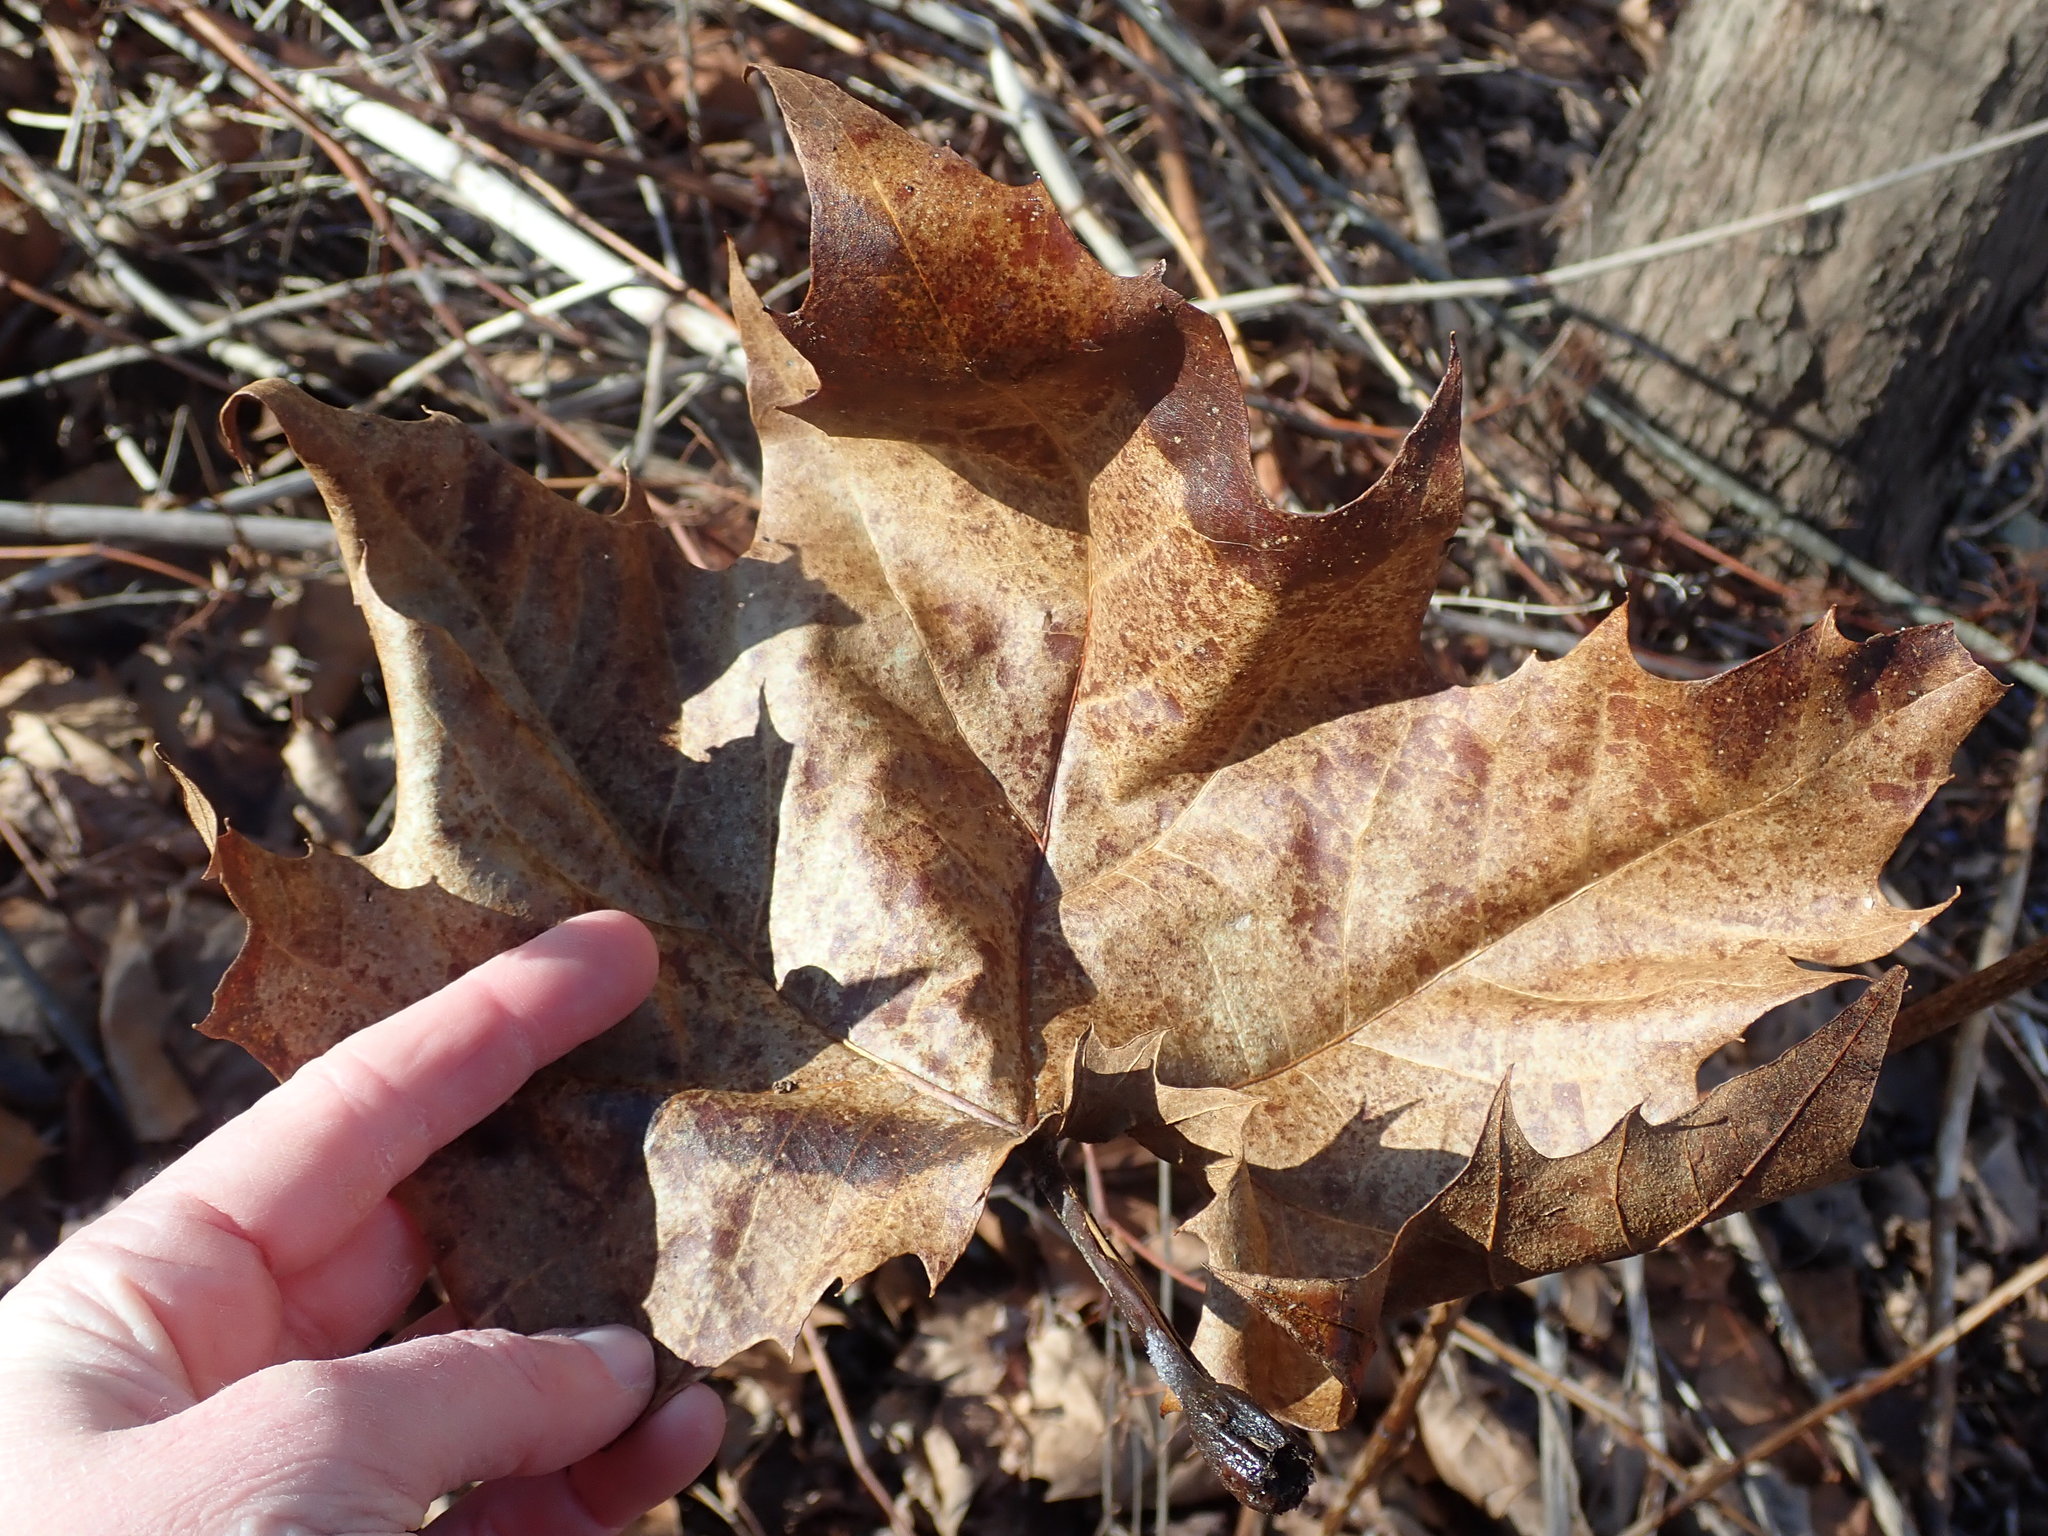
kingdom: Plantae
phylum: Tracheophyta
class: Magnoliopsida
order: Proteales
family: Platanaceae
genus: Platanus
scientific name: Platanus occidentalis
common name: American sycamore
